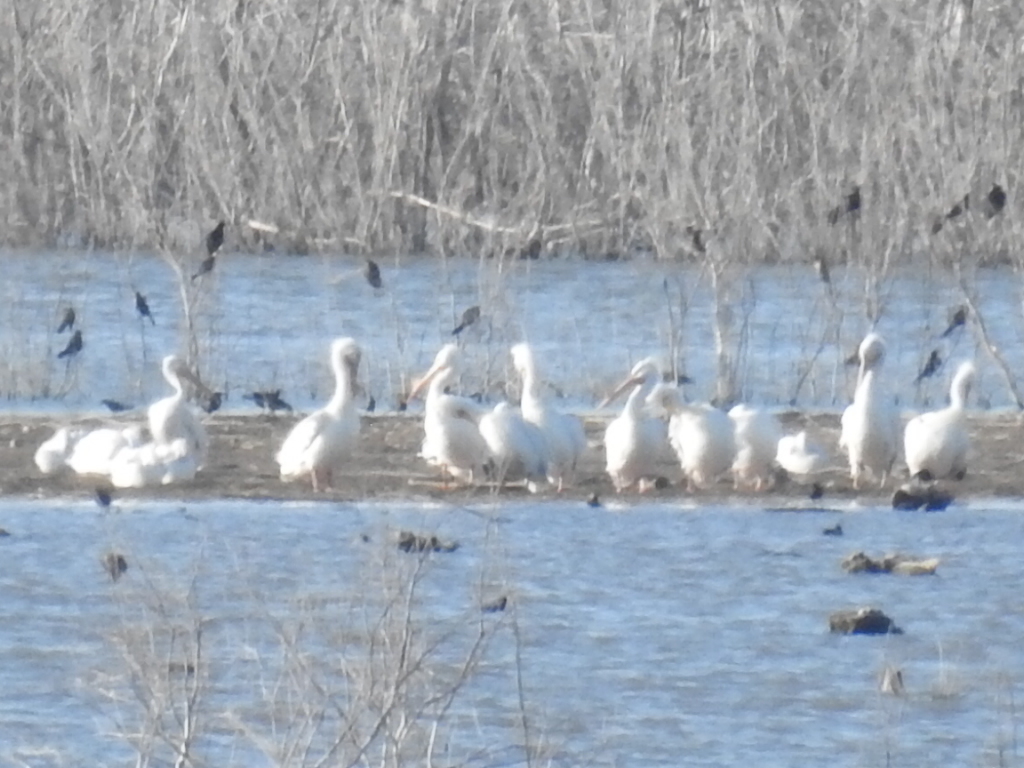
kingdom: Animalia
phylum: Chordata
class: Aves
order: Pelecaniformes
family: Pelecanidae
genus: Pelecanus
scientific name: Pelecanus erythrorhynchos
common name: American white pelican
